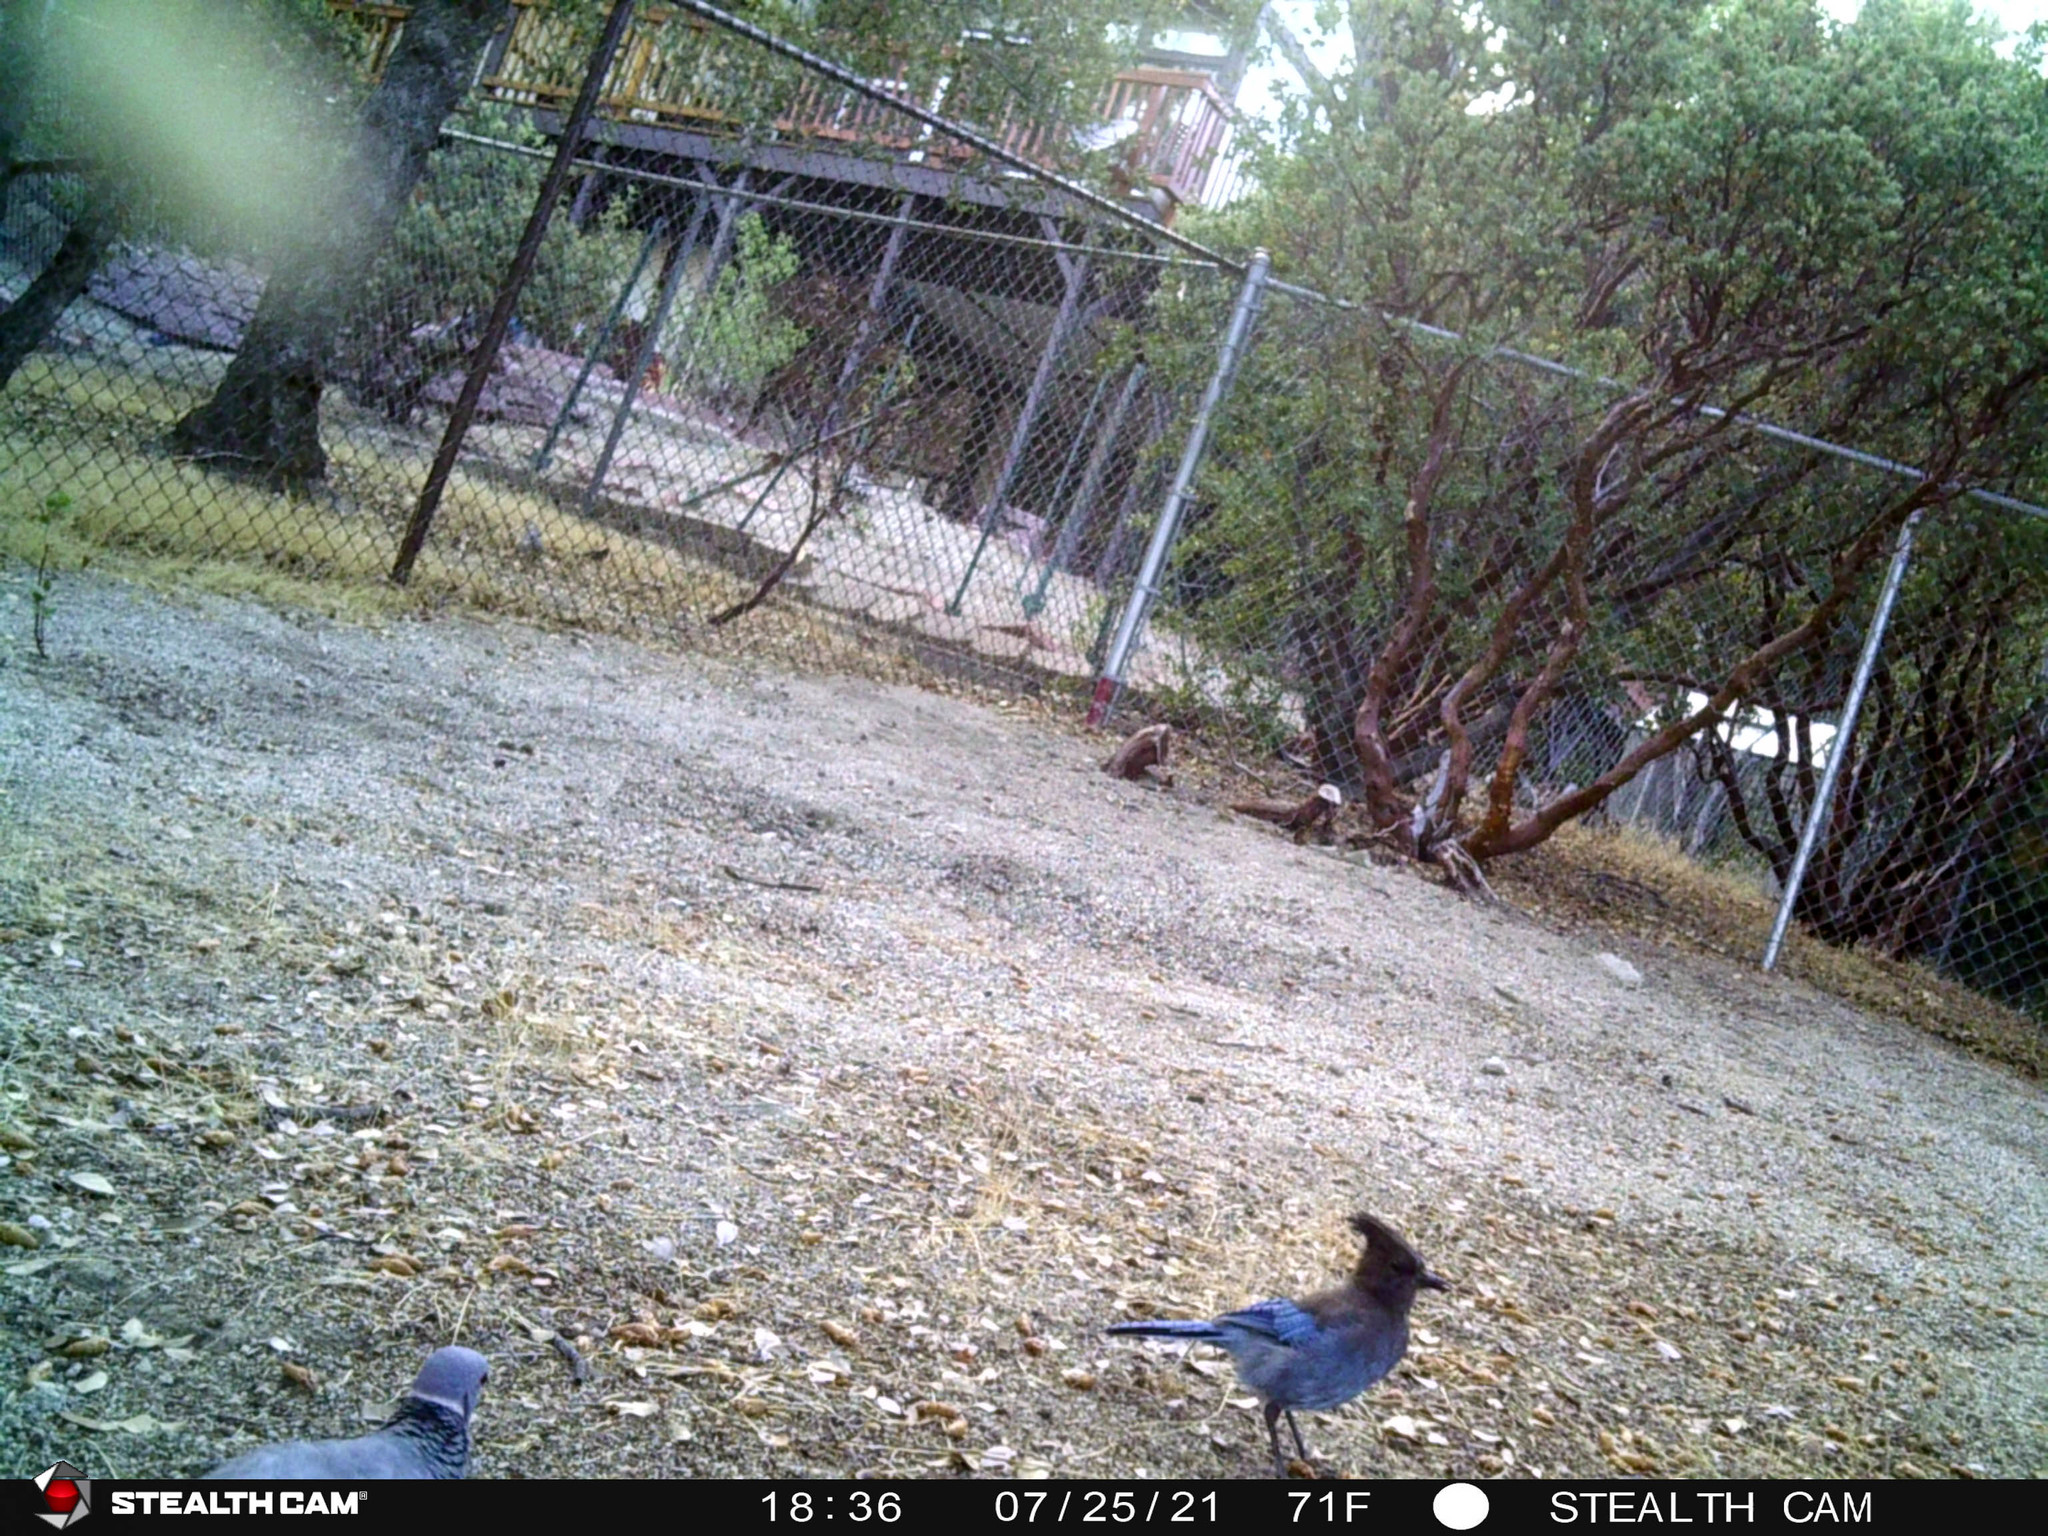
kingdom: Animalia
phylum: Chordata
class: Aves
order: Columbiformes
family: Columbidae
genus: Patagioenas
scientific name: Patagioenas fasciata
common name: Band-tailed pigeon
